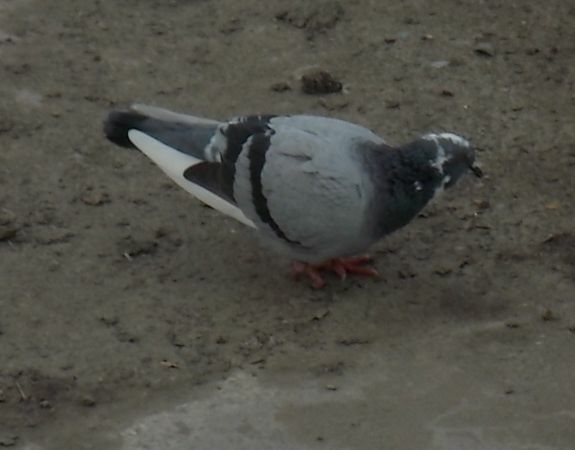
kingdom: Animalia
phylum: Chordata
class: Aves
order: Columbiformes
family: Columbidae
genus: Columba
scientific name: Columba livia
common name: Rock pigeon
